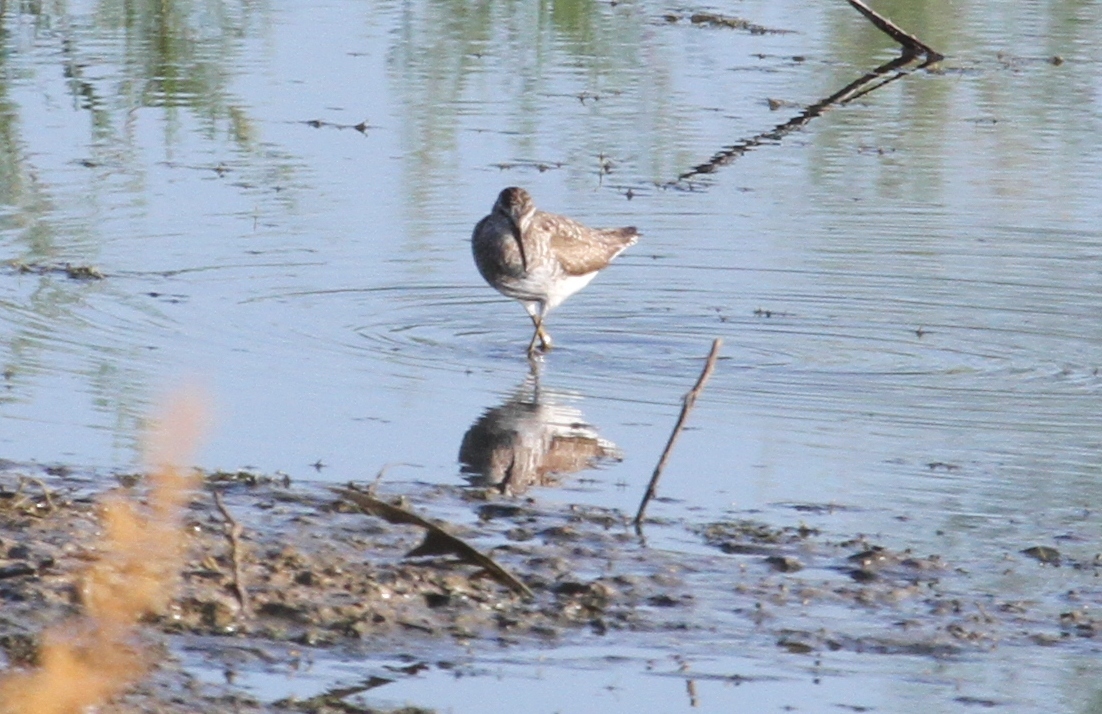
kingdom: Animalia
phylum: Chordata
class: Aves
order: Charadriiformes
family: Scolopacidae
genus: Tringa
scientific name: Tringa glareola
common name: Wood sandpiper
